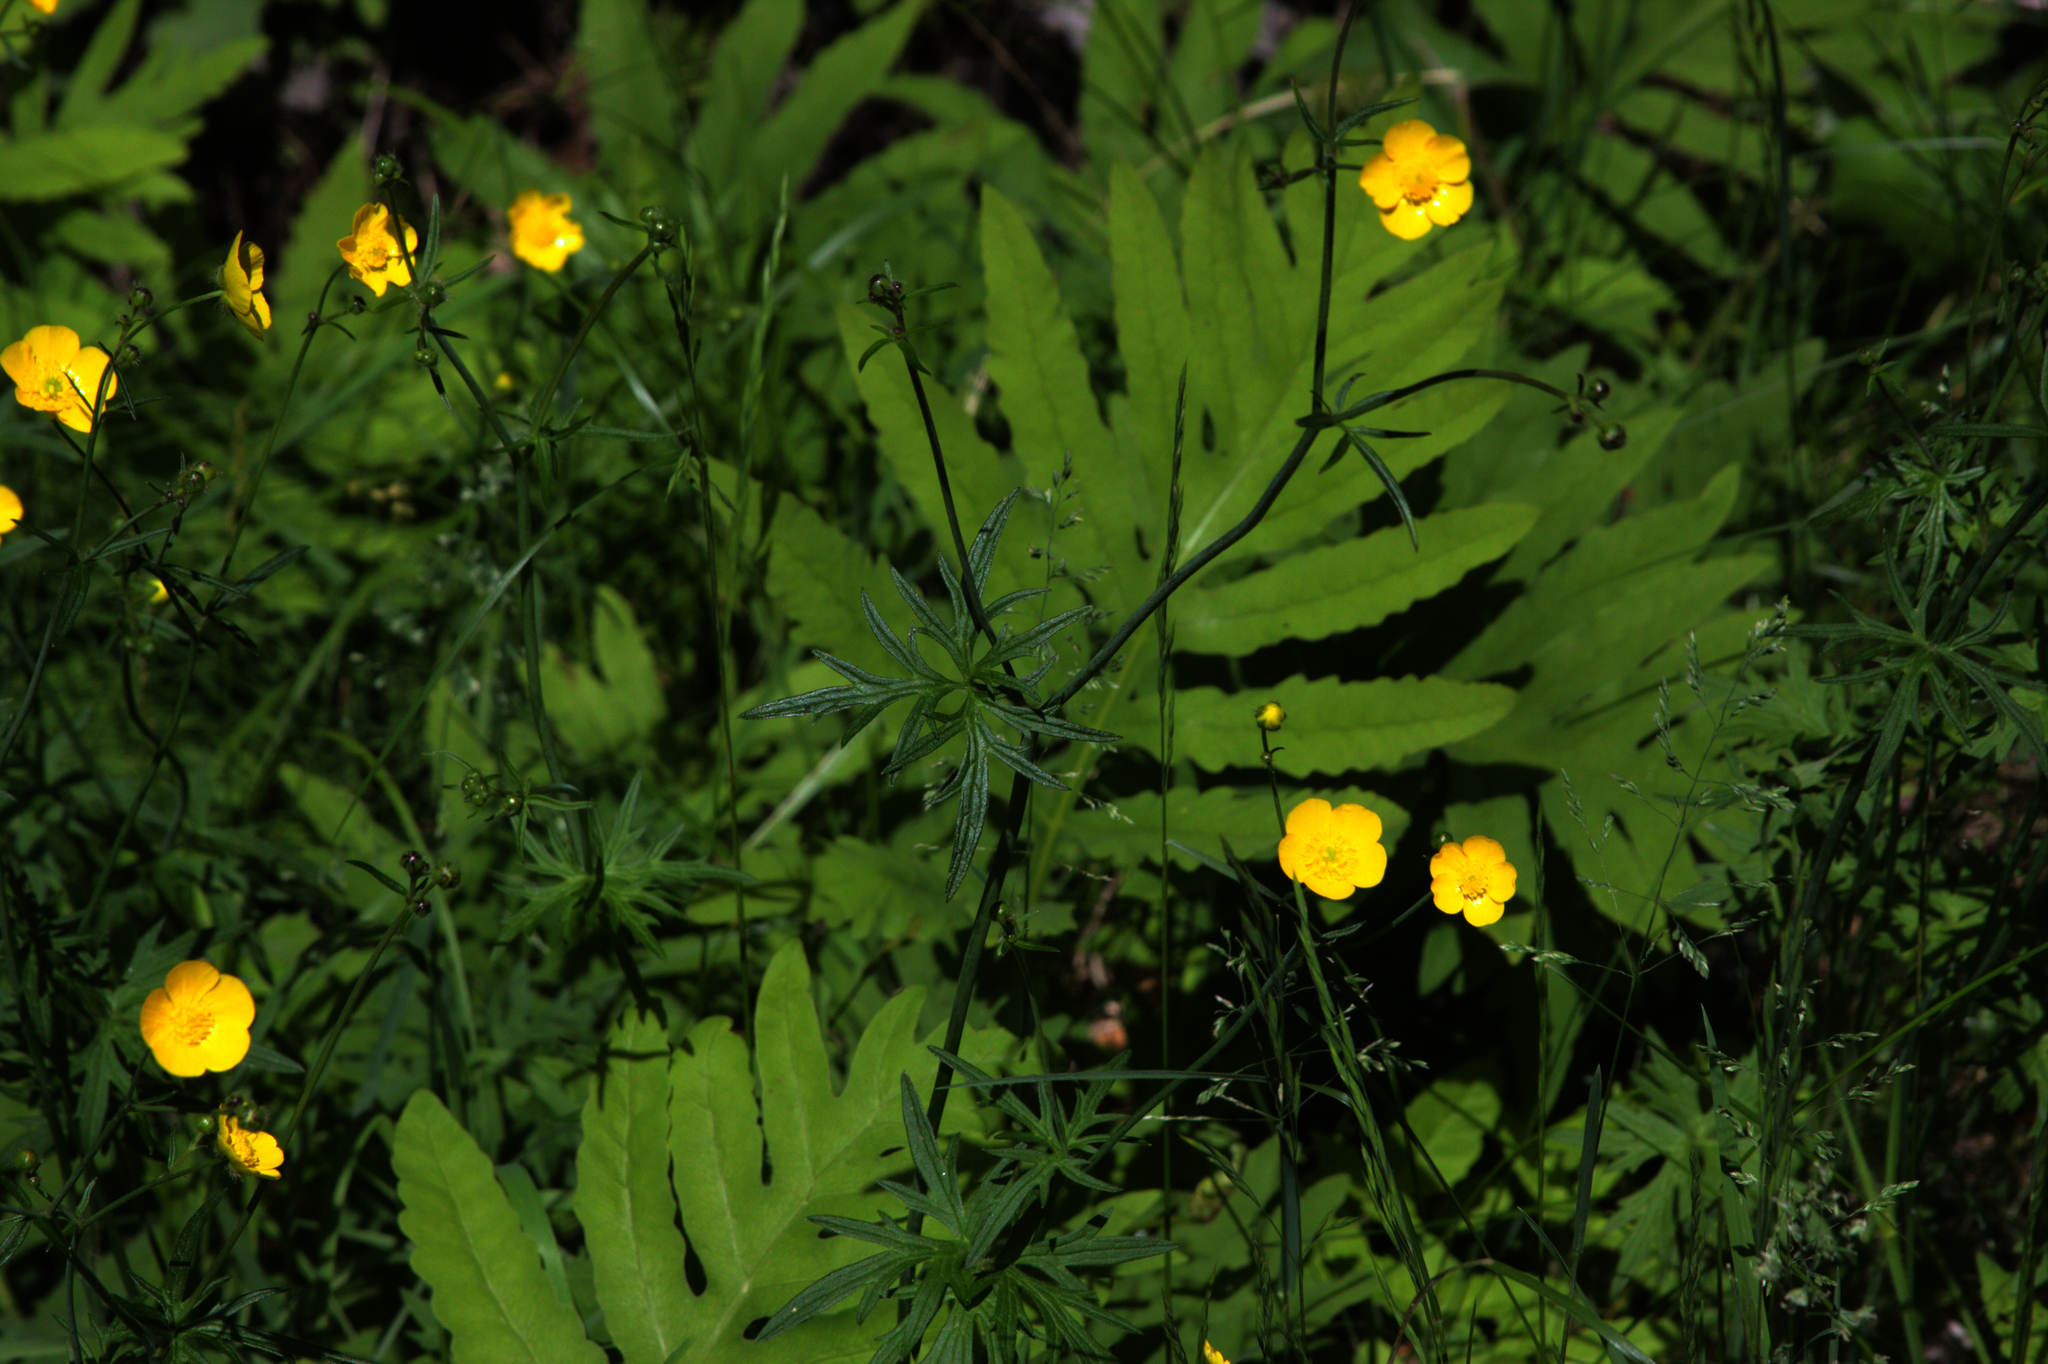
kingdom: Plantae
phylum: Tracheophyta
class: Polypodiopsida
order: Polypodiales
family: Onocleaceae
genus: Onoclea
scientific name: Onoclea sensibilis
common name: Sensitive fern
